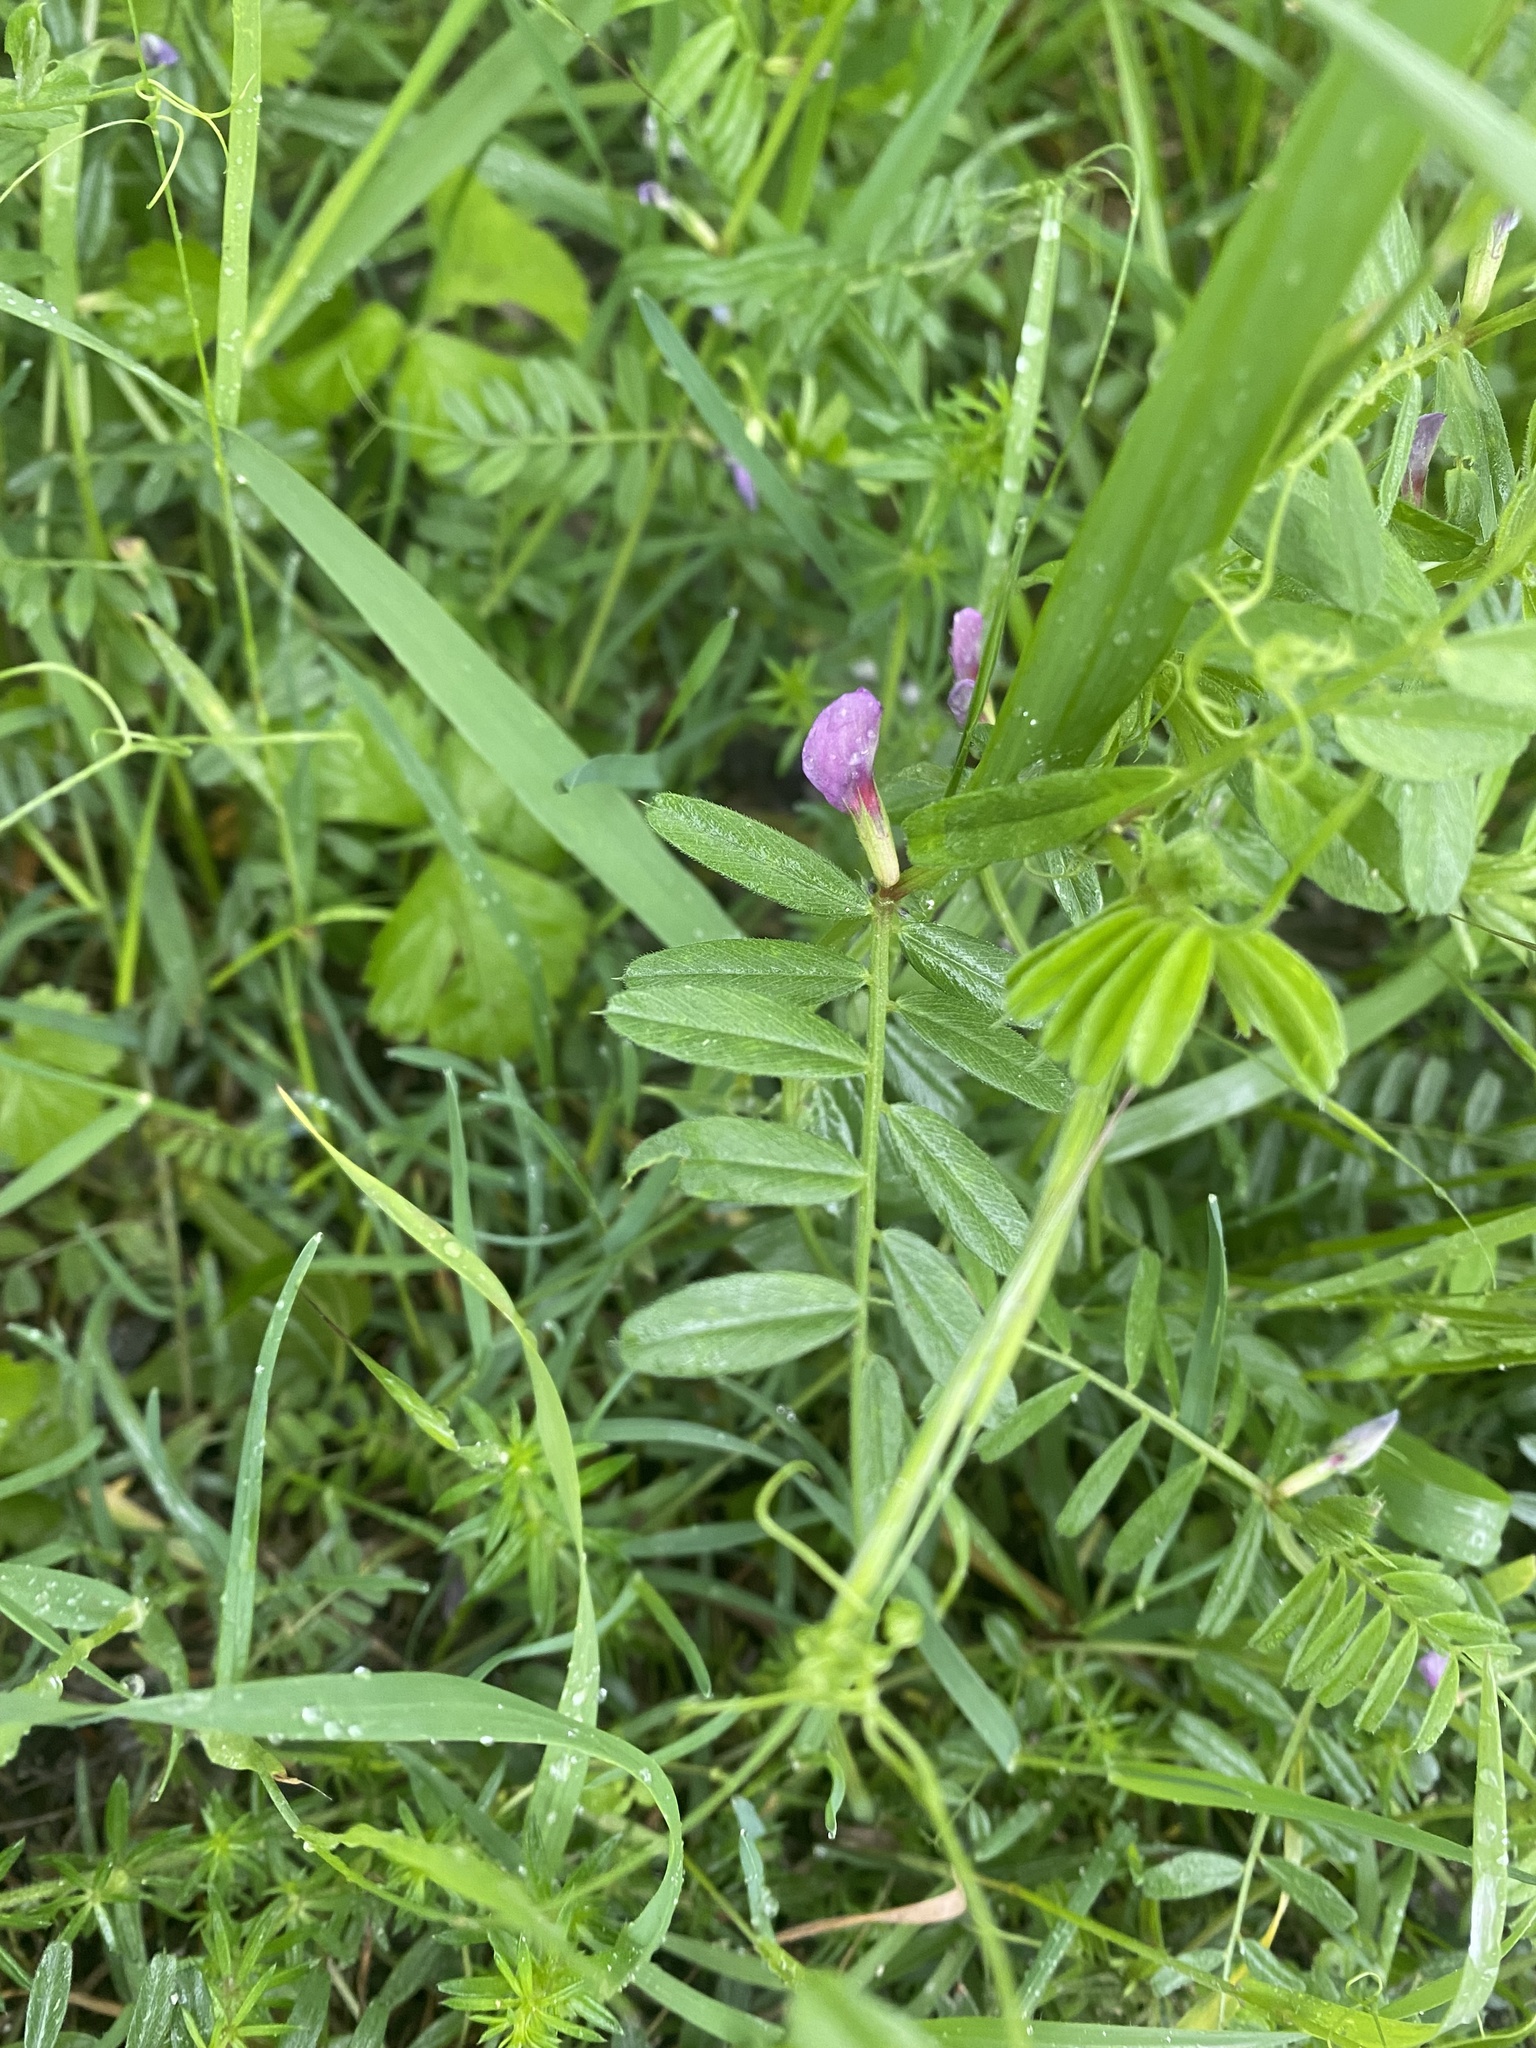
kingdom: Plantae
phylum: Tracheophyta
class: Magnoliopsida
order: Fabales
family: Fabaceae
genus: Vicia
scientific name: Vicia sativa
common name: Garden vetch
